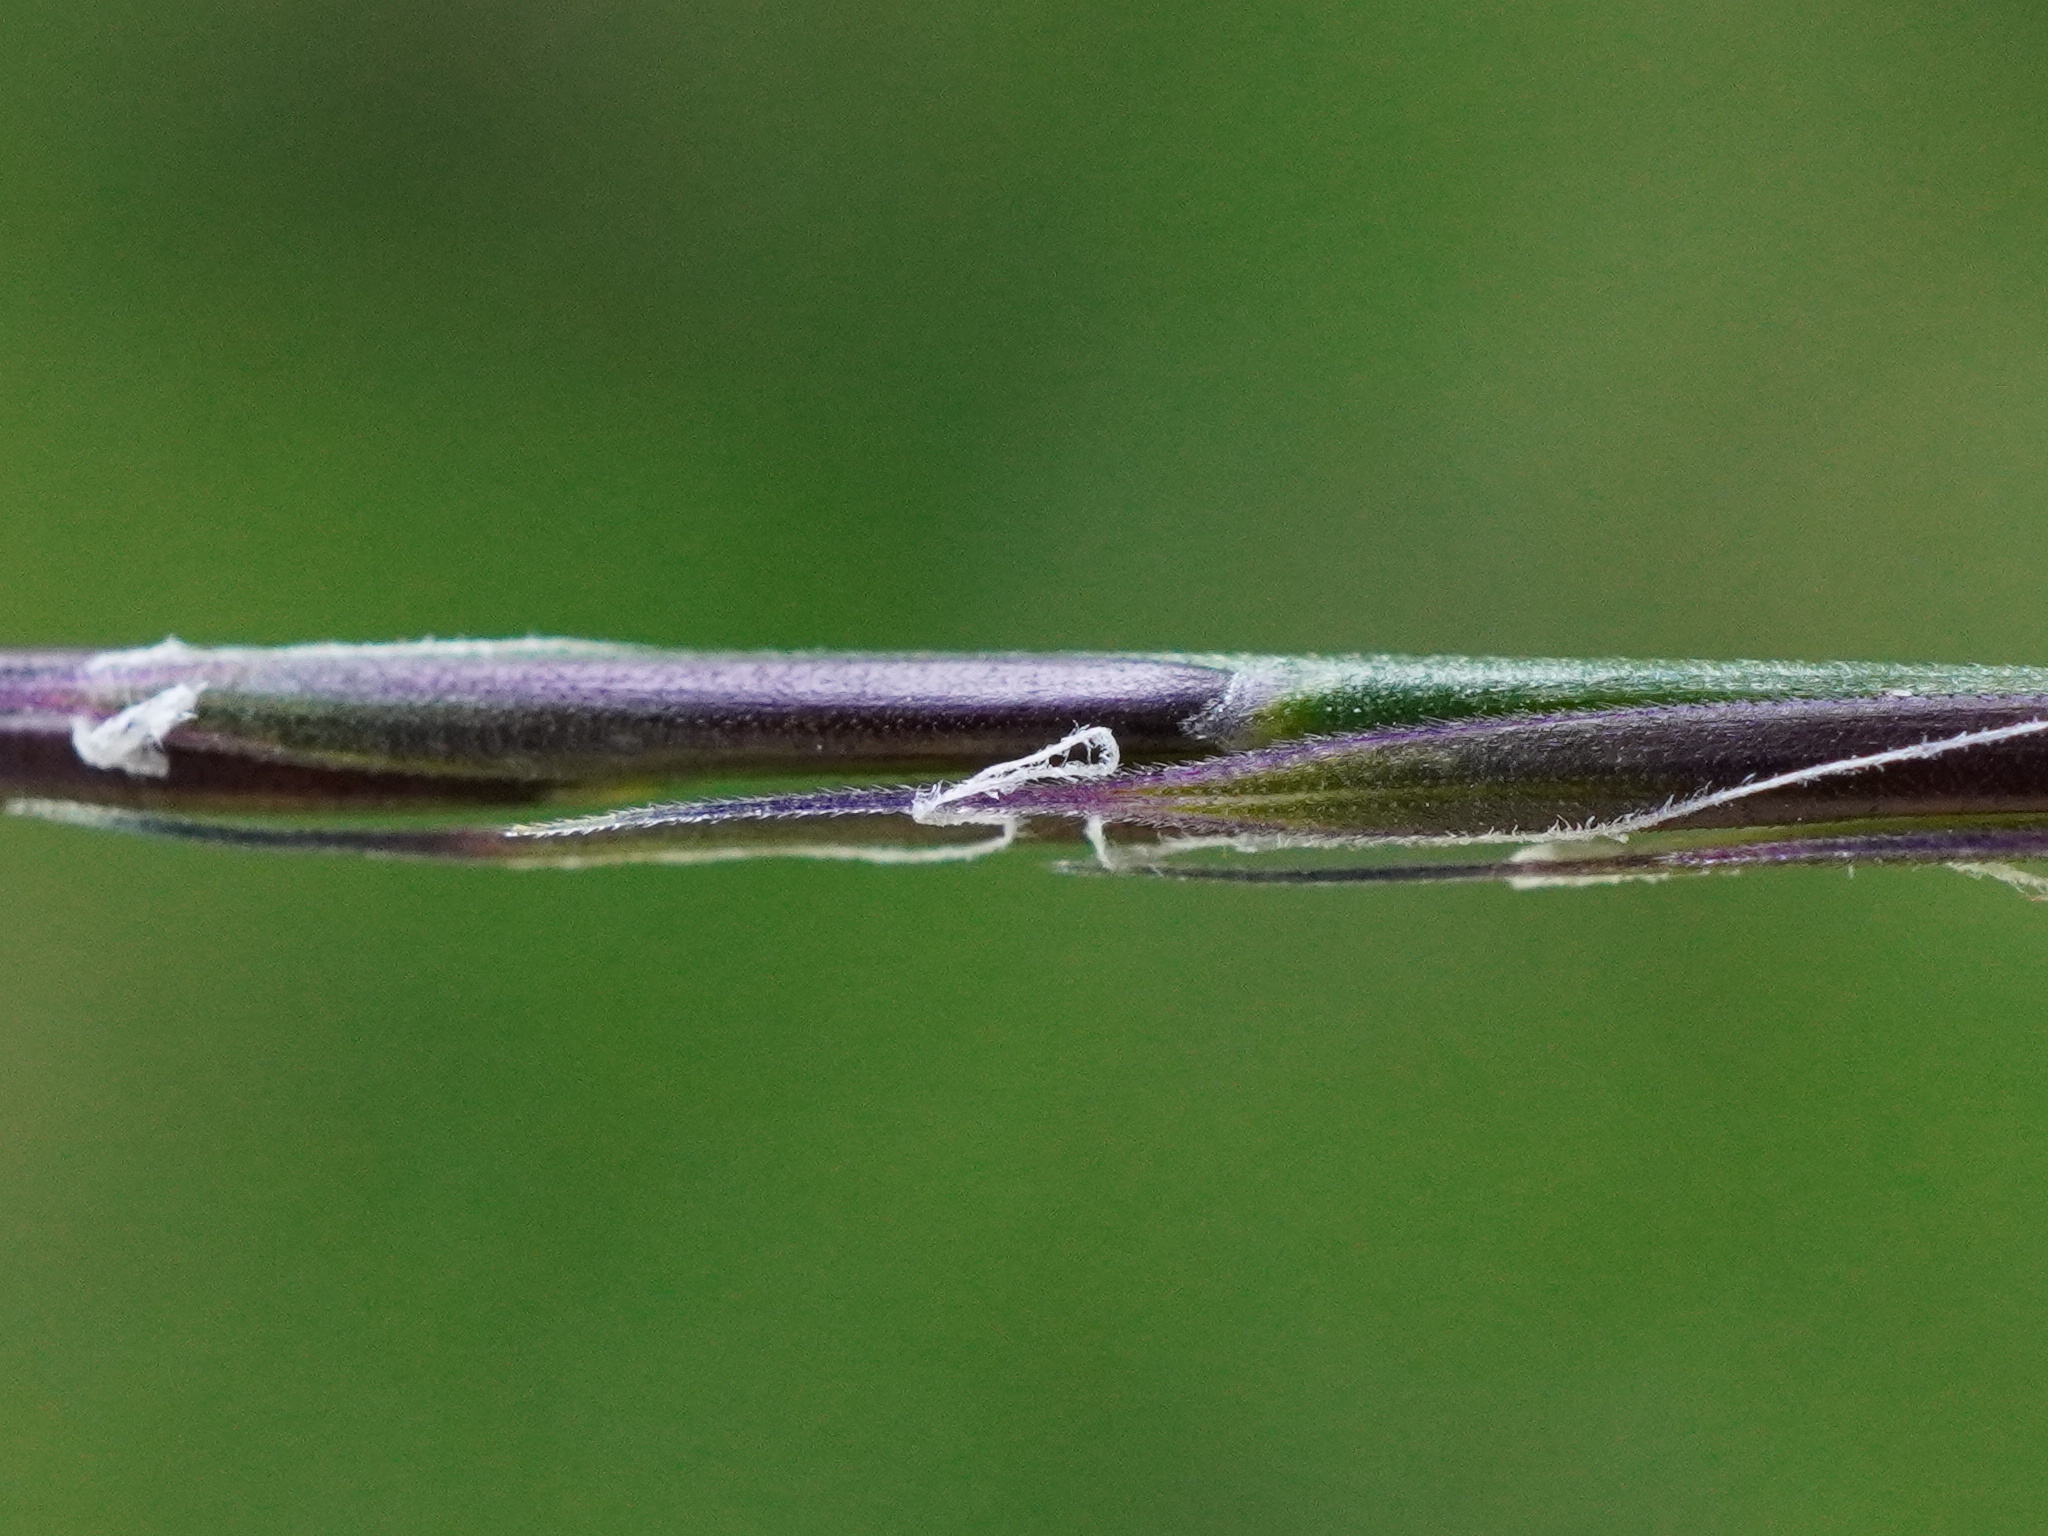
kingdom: Plantae
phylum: Tracheophyta
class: Liliopsida
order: Poales
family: Poaceae
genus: Nardus
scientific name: Nardus stricta
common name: Mat-grass
